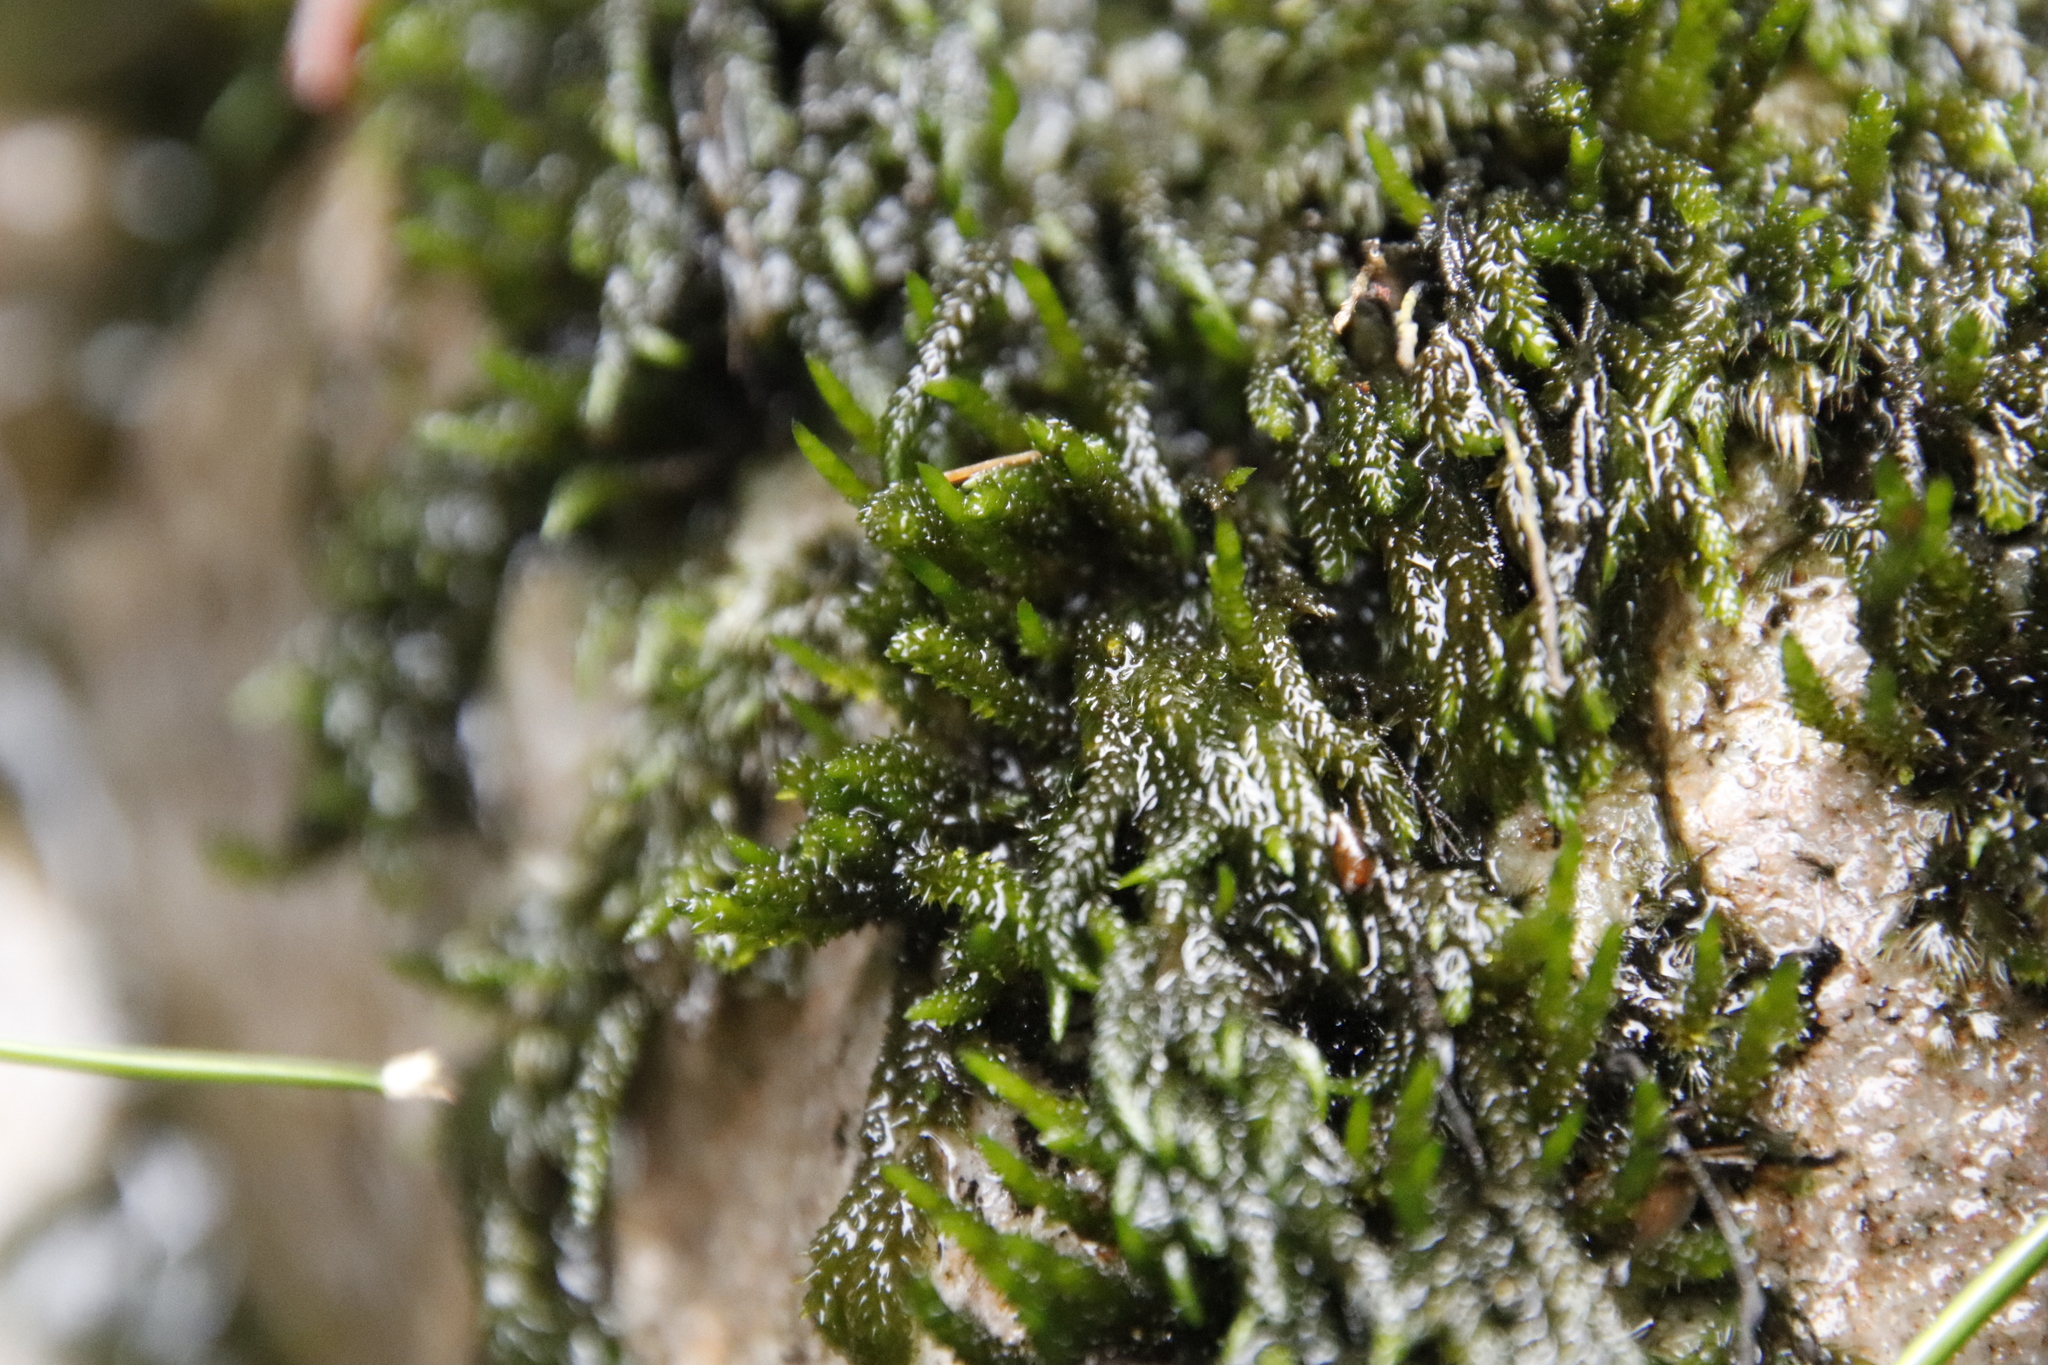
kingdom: Plantae
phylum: Bryophyta
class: Bryopsida
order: Dicranales
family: Dicranaceae
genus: Wardia
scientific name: Wardia hygrometrica
